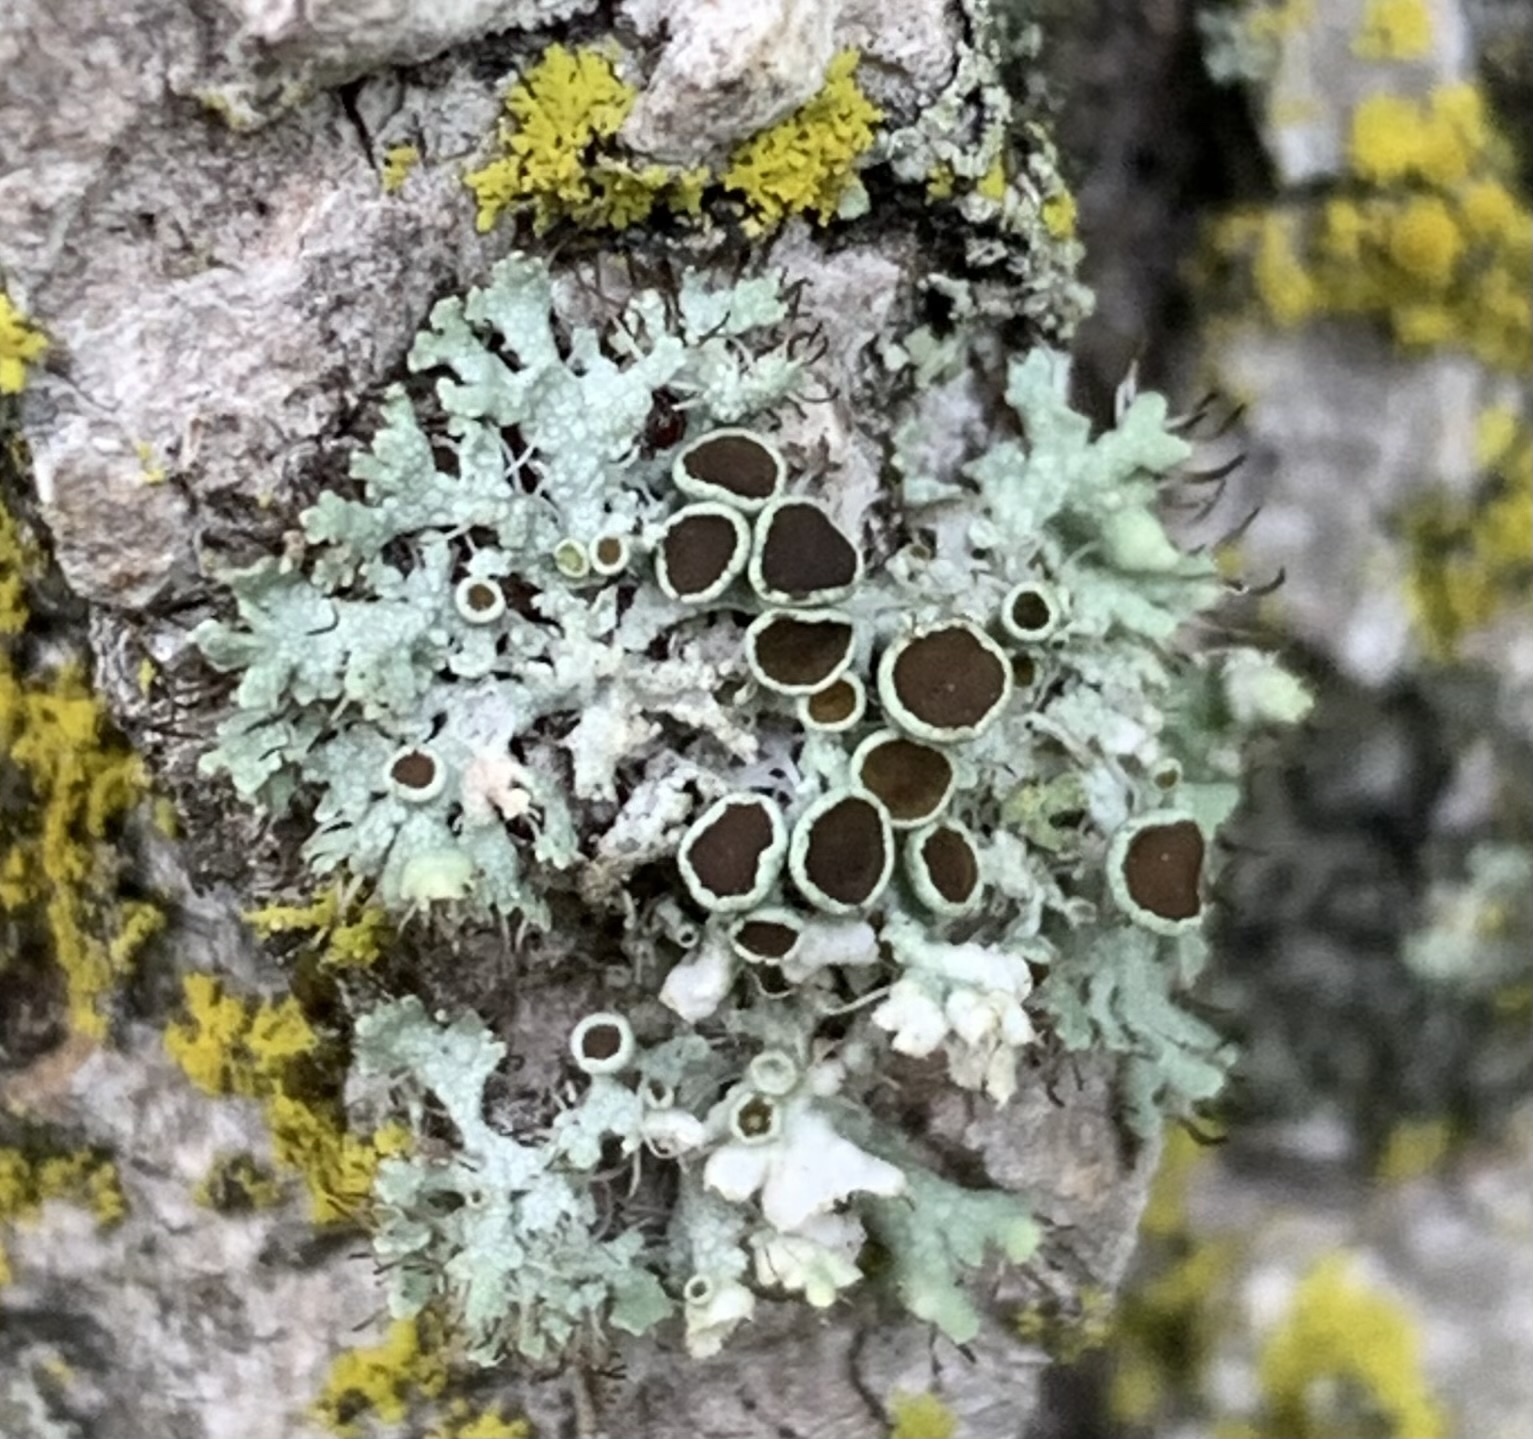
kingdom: Fungi
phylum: Ascomycota
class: Lecanoromycetes
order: Caliciales
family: Physciaceae
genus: Physcia
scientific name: Physcia adscendens
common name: Hooded rosette lichen
